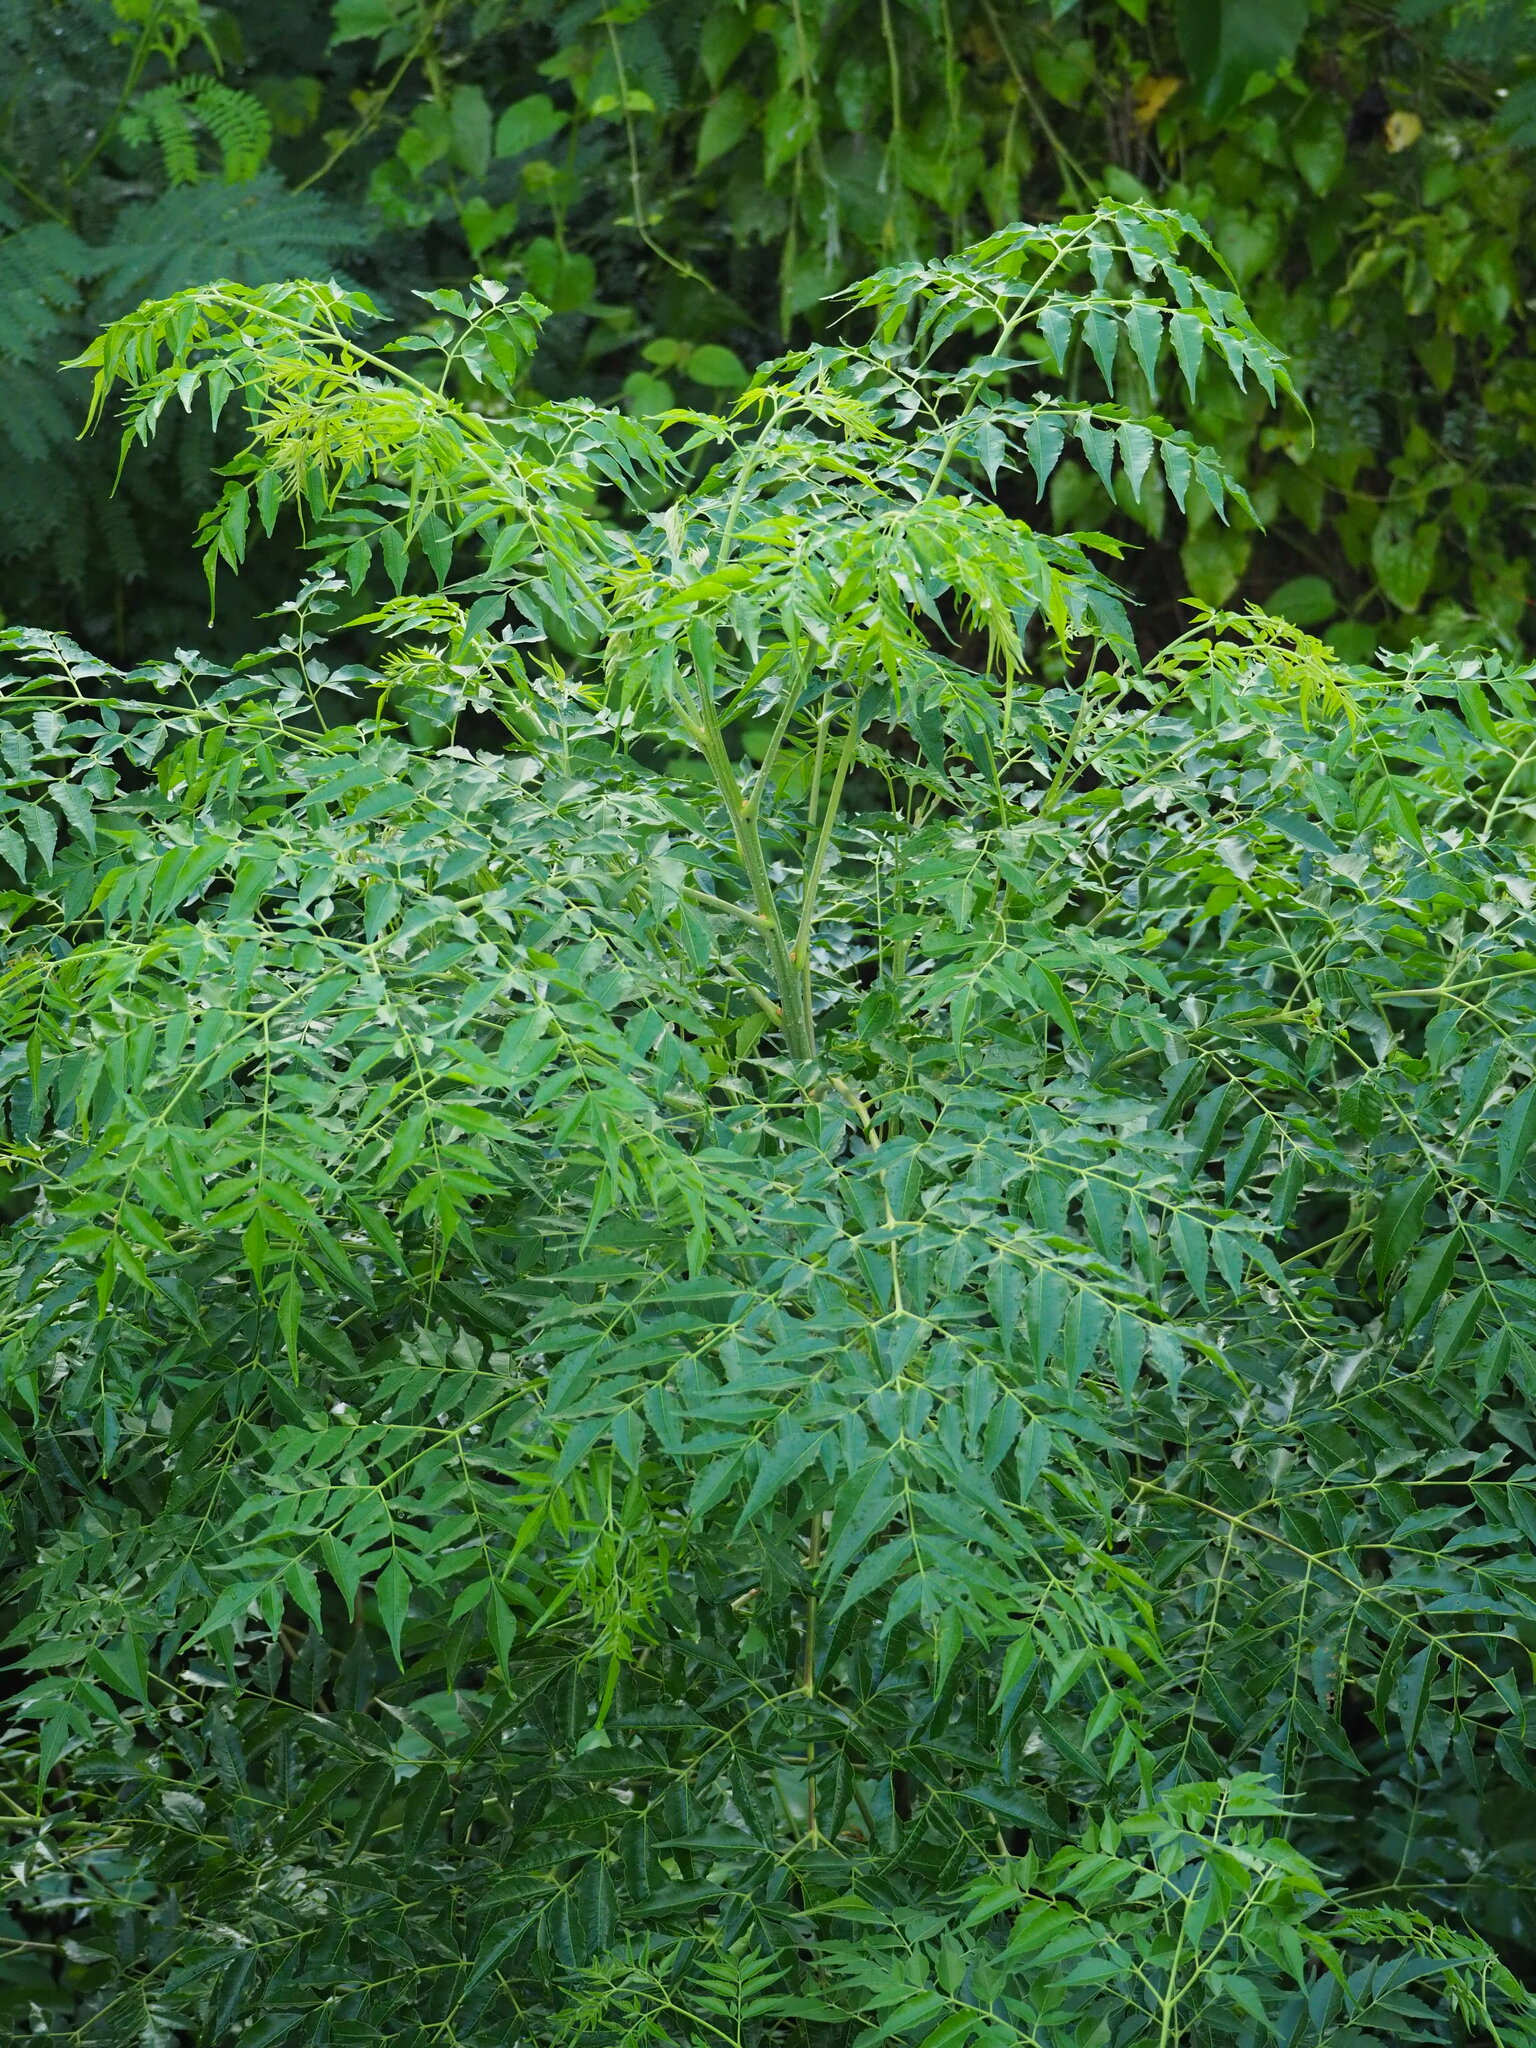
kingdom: Plantae
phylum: Tracheophyta
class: Magnoliopsida
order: Sapindales
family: Meliaceae
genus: Melia
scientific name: Melia azedarach
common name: Chinaberrytree
